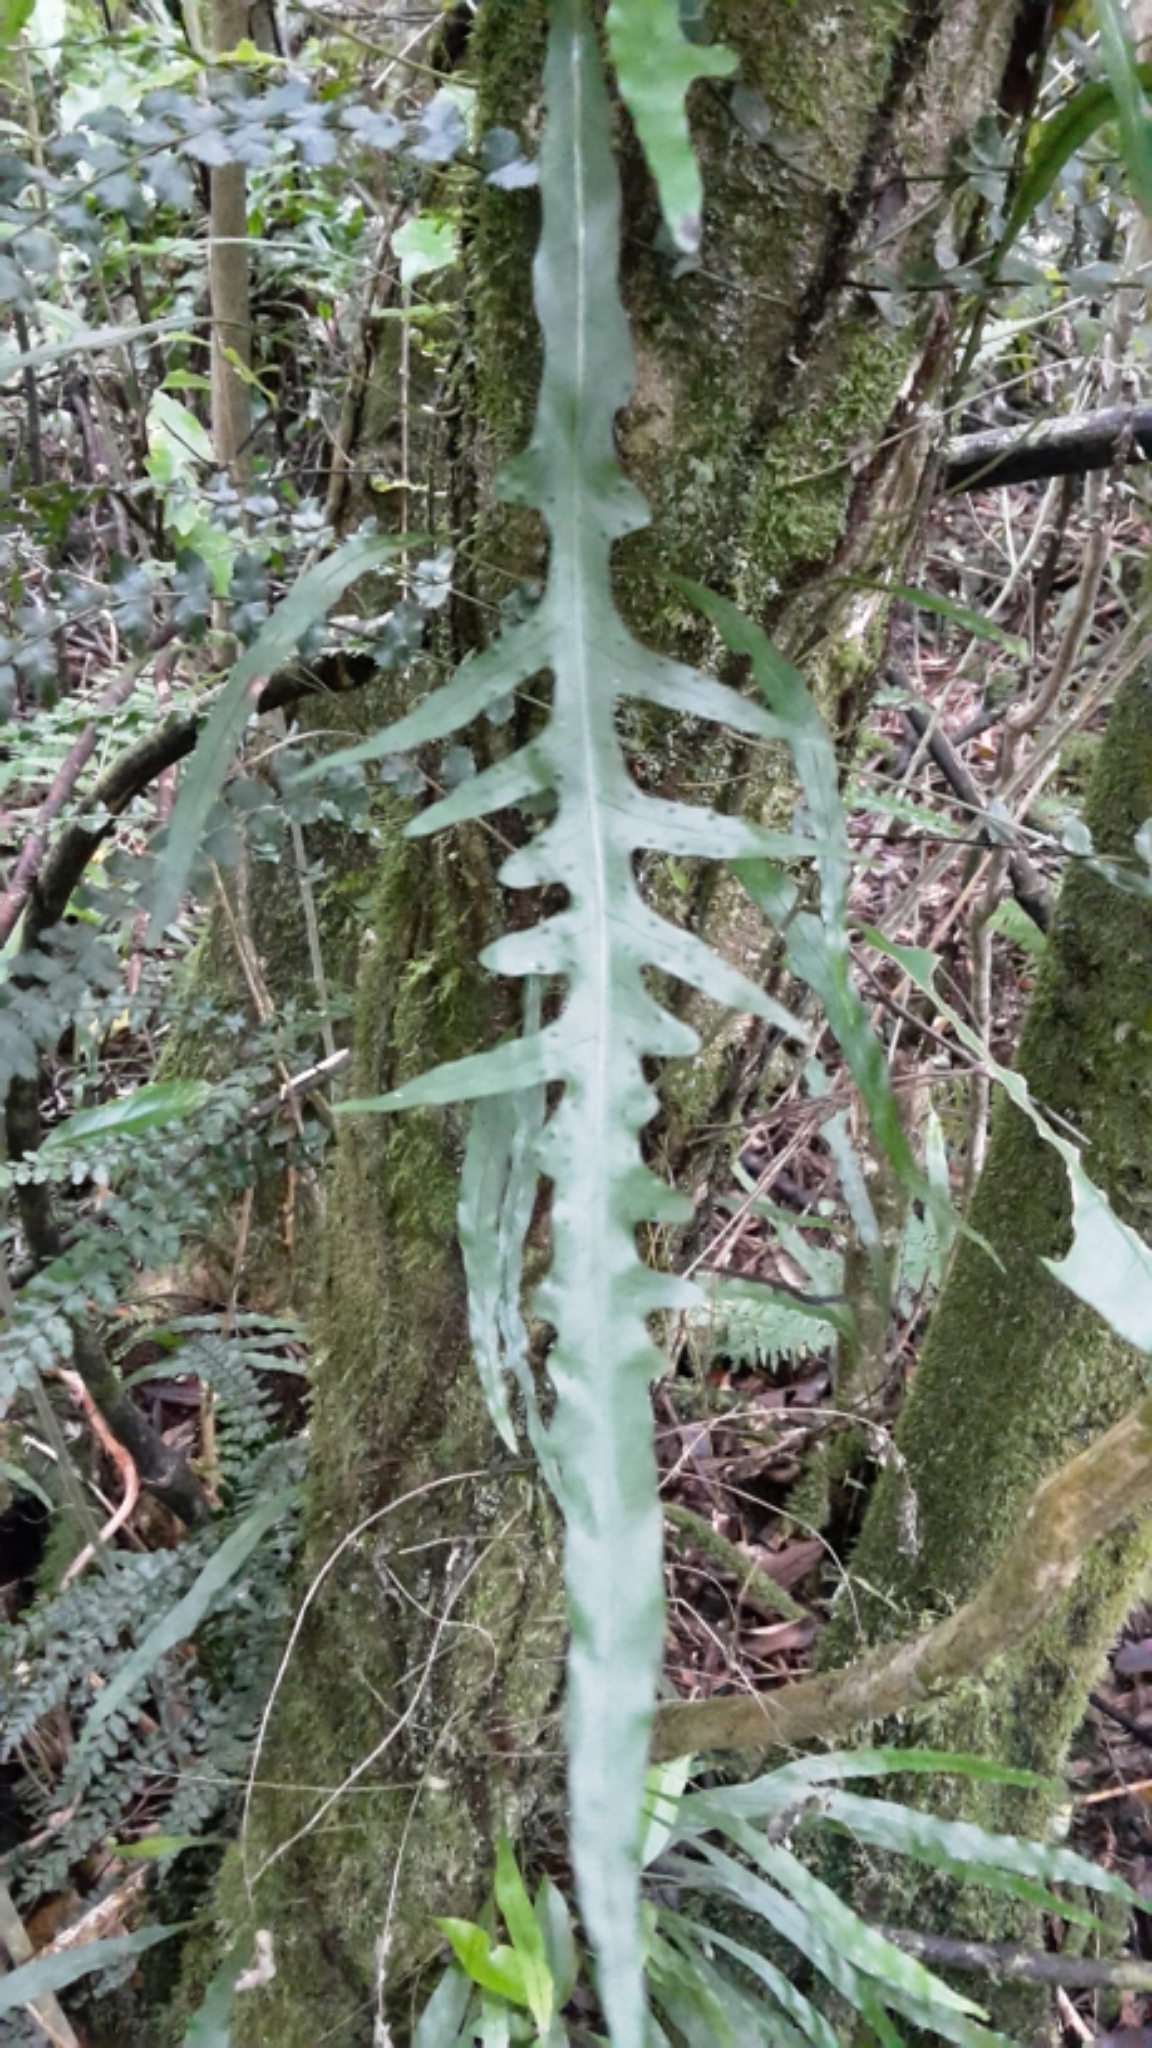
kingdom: Plantae
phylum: Tracheophyta
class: Polypodiopsida
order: Polypodiales
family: Polypodiaceae
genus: Lecanopteris
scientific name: Lecanopteris scandens
